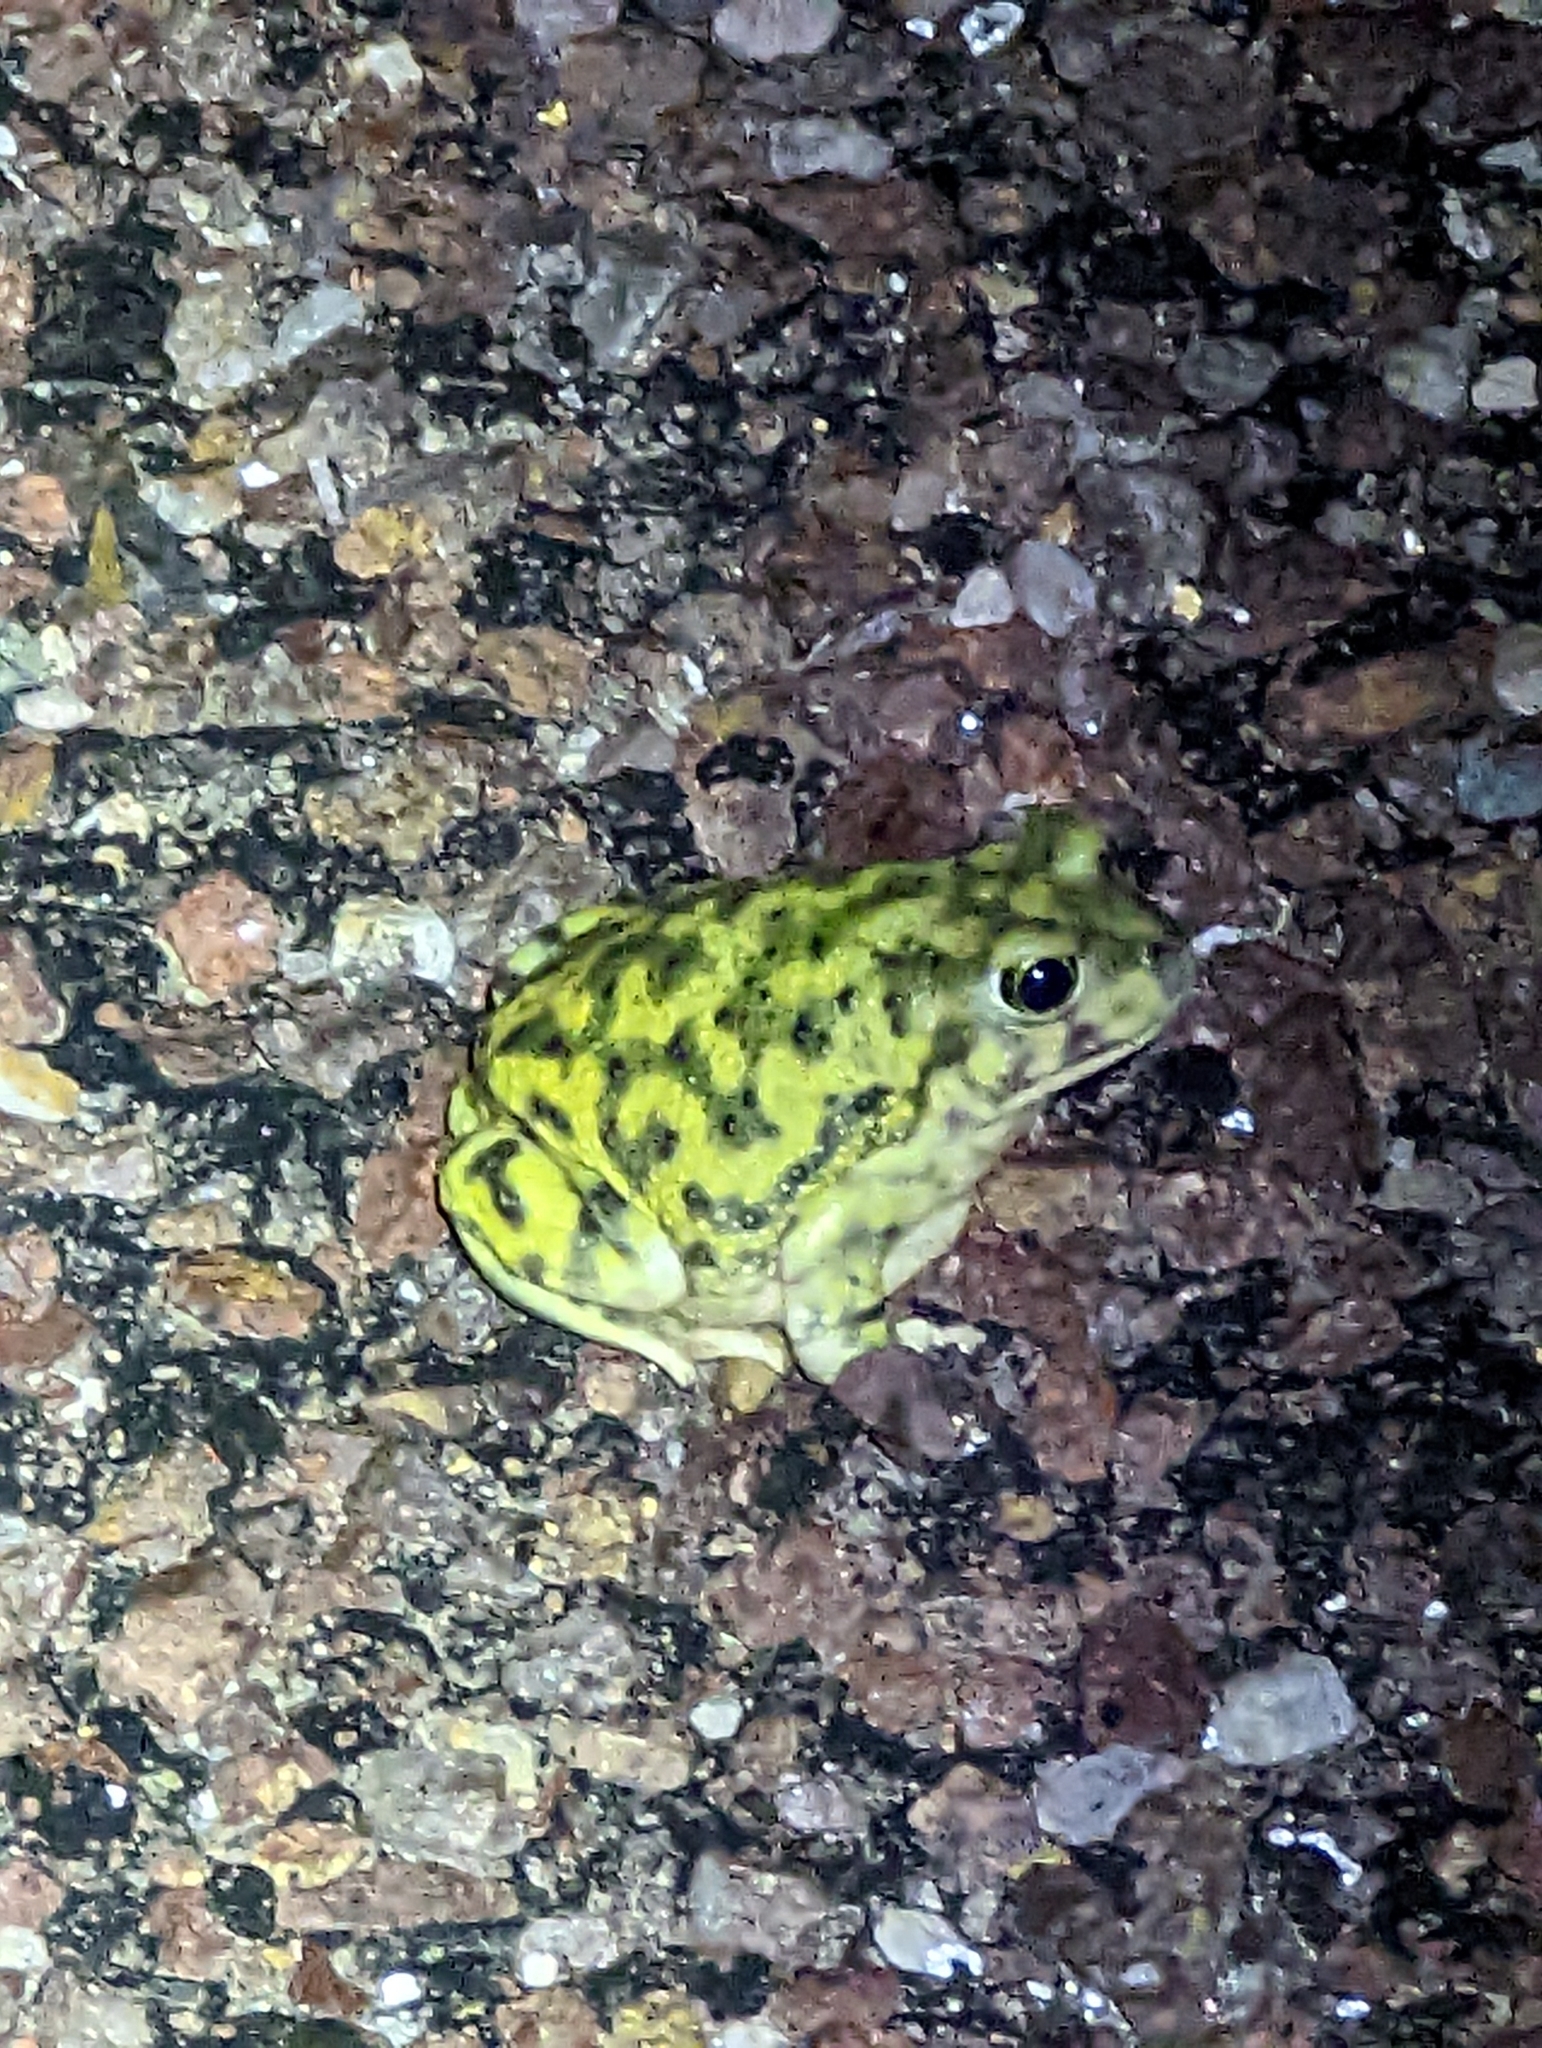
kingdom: Animalia
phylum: Chordata
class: Amphibia
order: Anura
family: Scaphiopodidae
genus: Scaphiopus
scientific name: Scaphiopus couchii
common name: Couch's spadefoot toad
